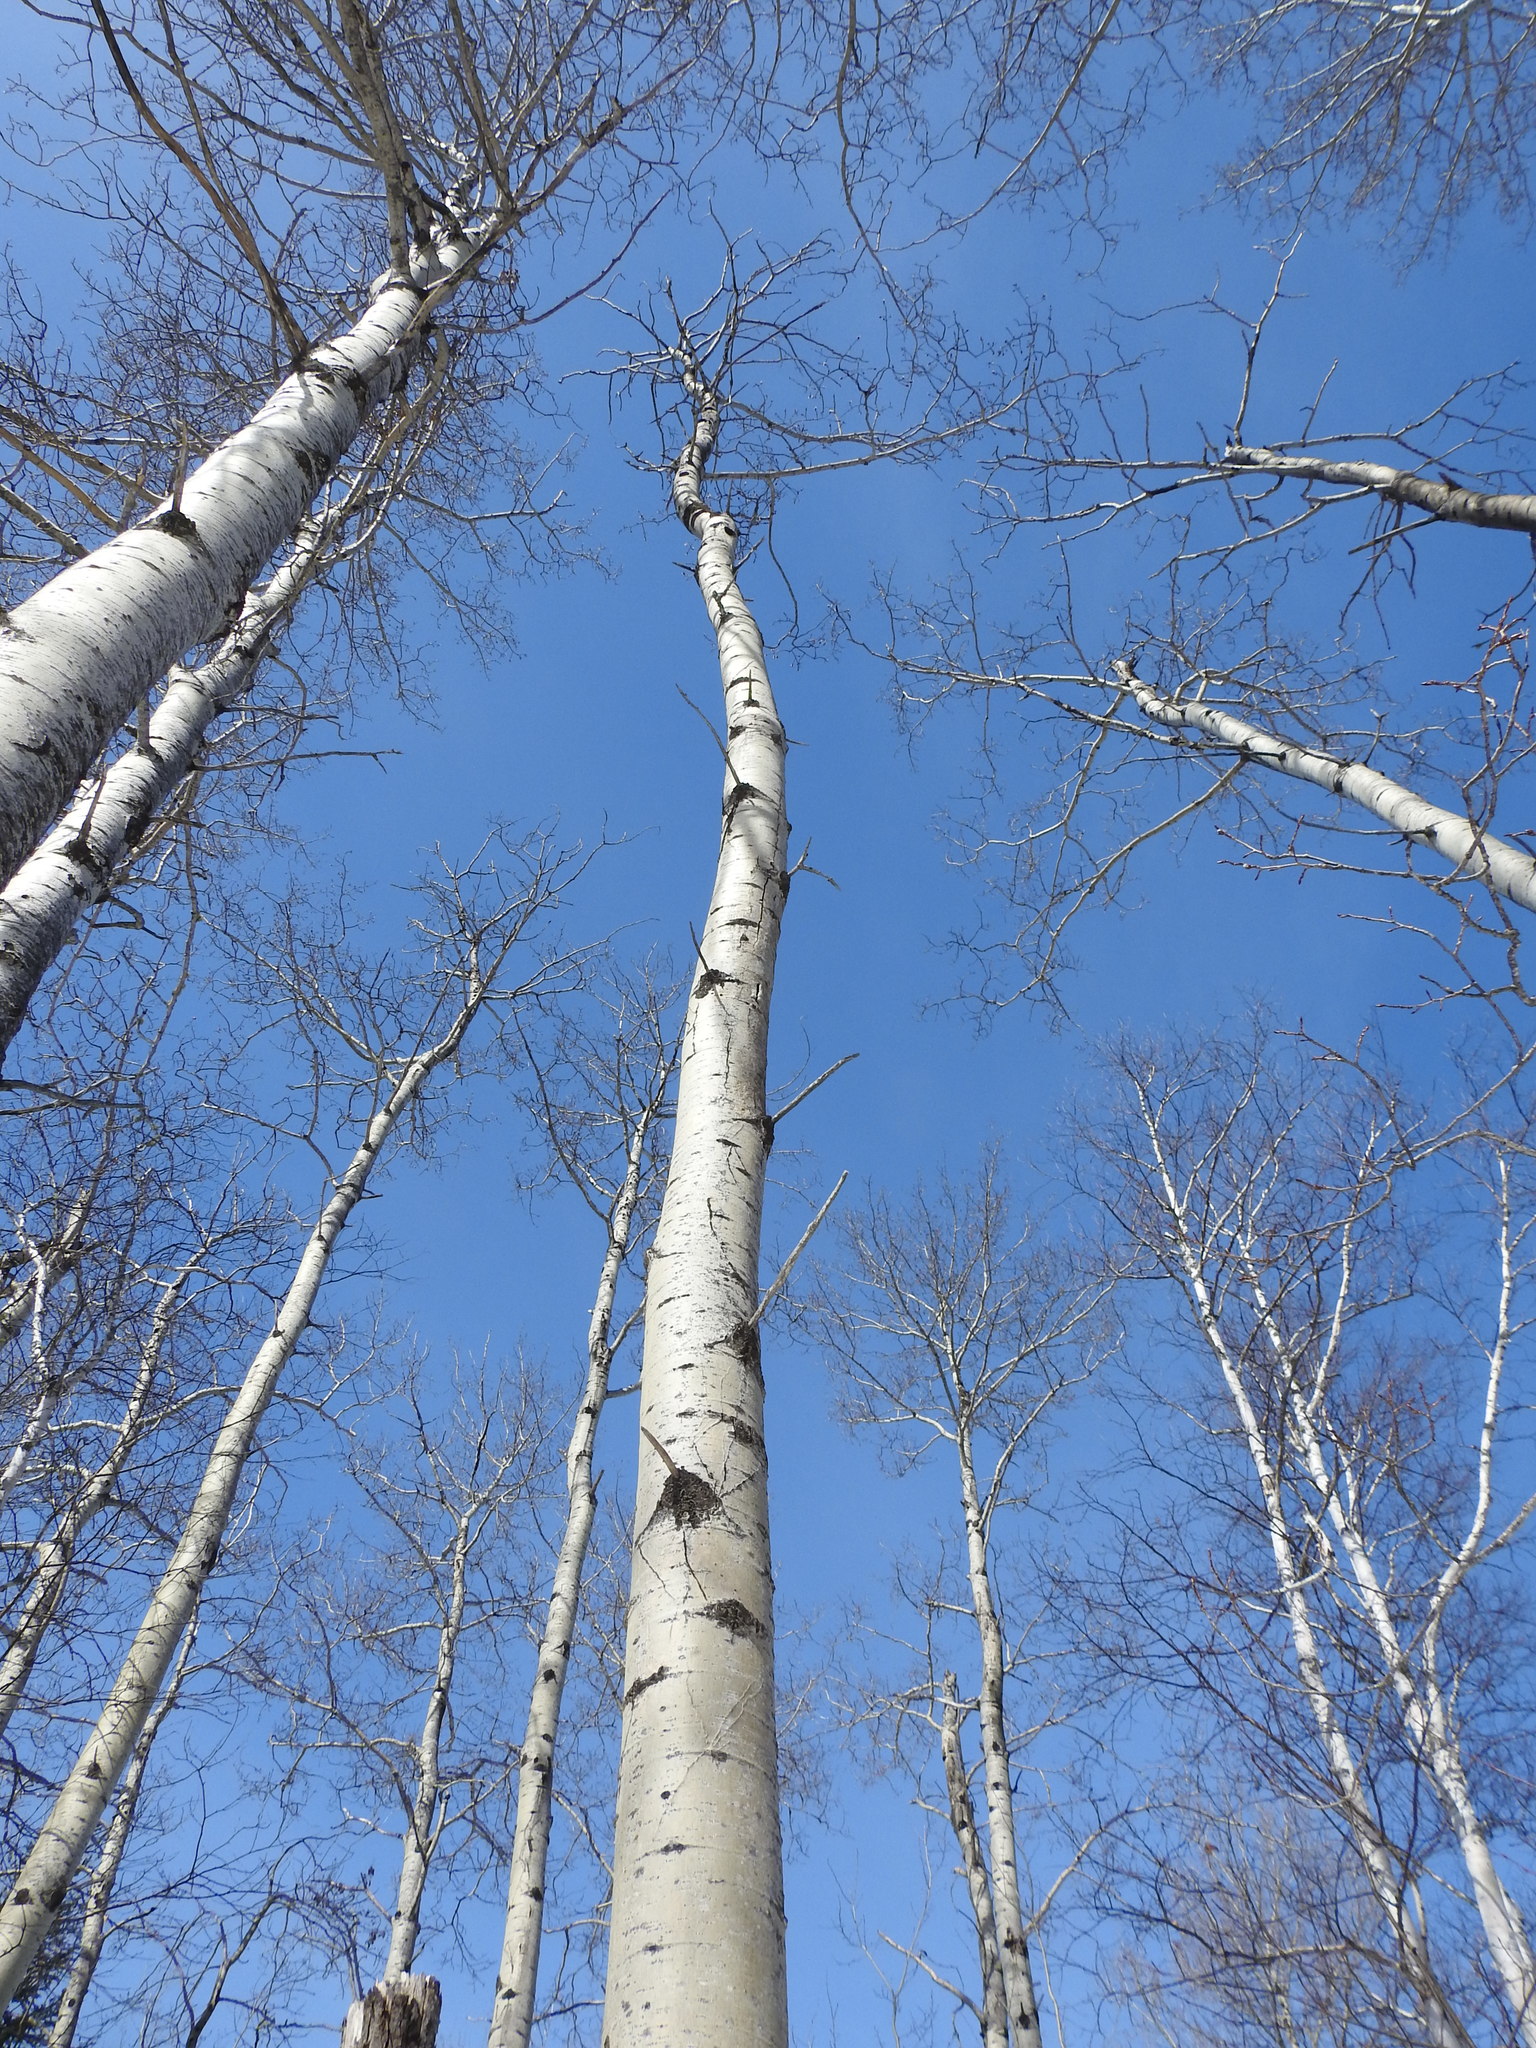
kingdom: Plantae
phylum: Tracheophyta
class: Magnoliopsida
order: Malpighiales
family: Salicaceae
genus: Populus
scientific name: Populus tremuloides
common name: Quaking aspen
